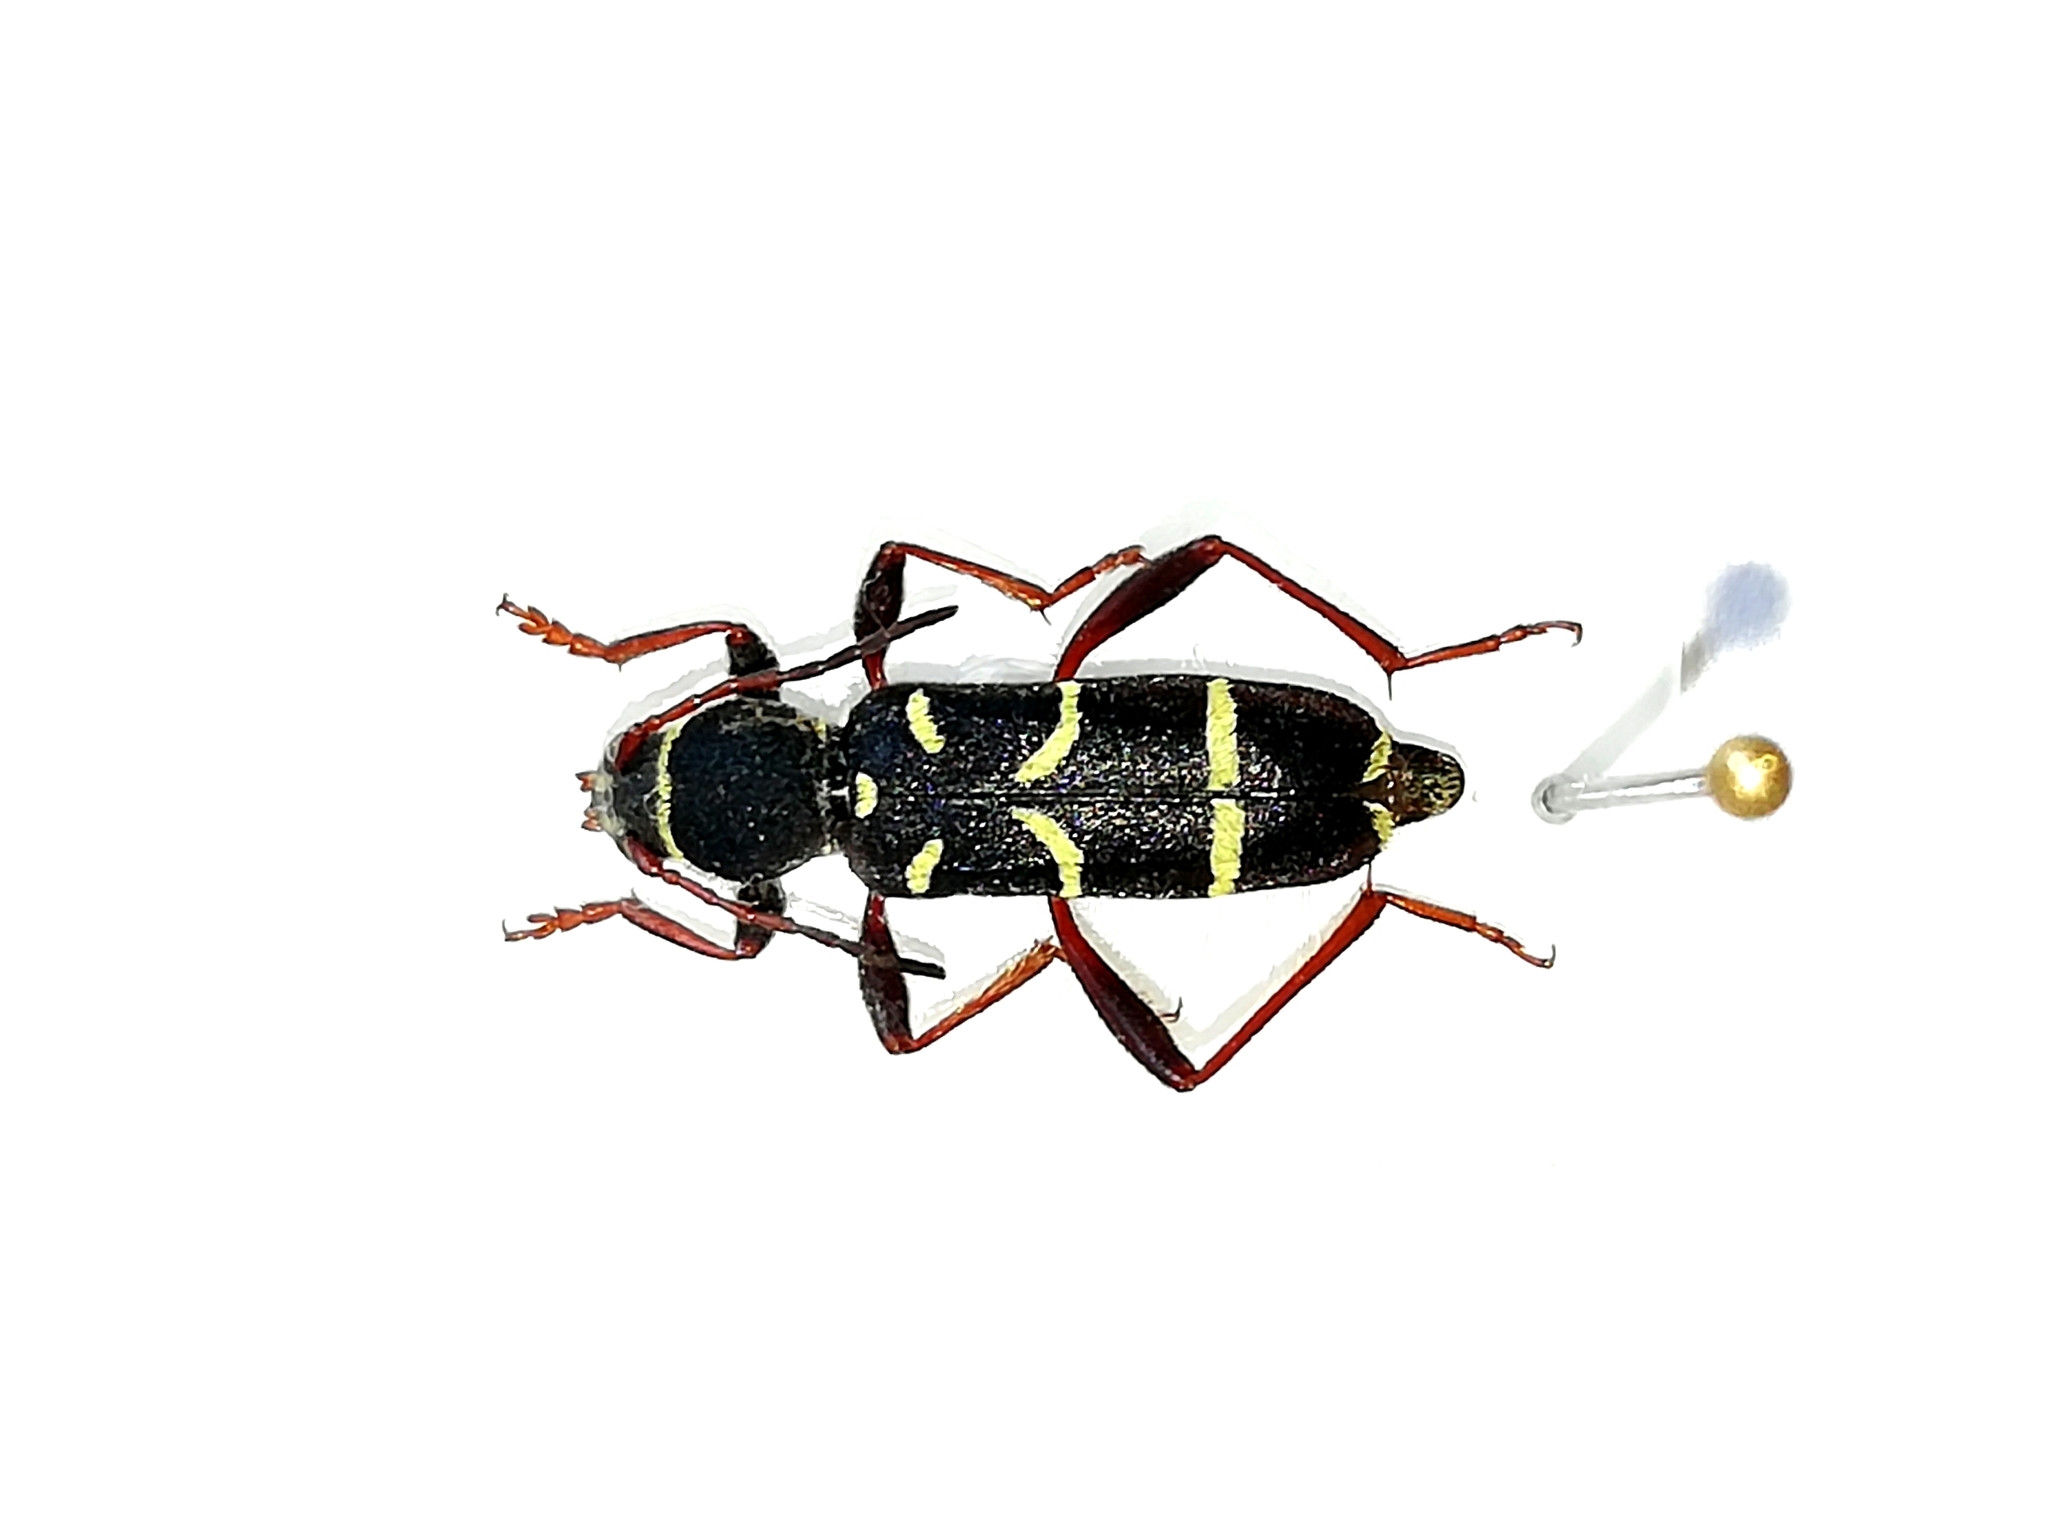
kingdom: Animalia
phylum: Arthropoda
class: Insecta
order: Coleoptera
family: Cerambycidae
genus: Clytus
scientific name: Clytus arietoides
